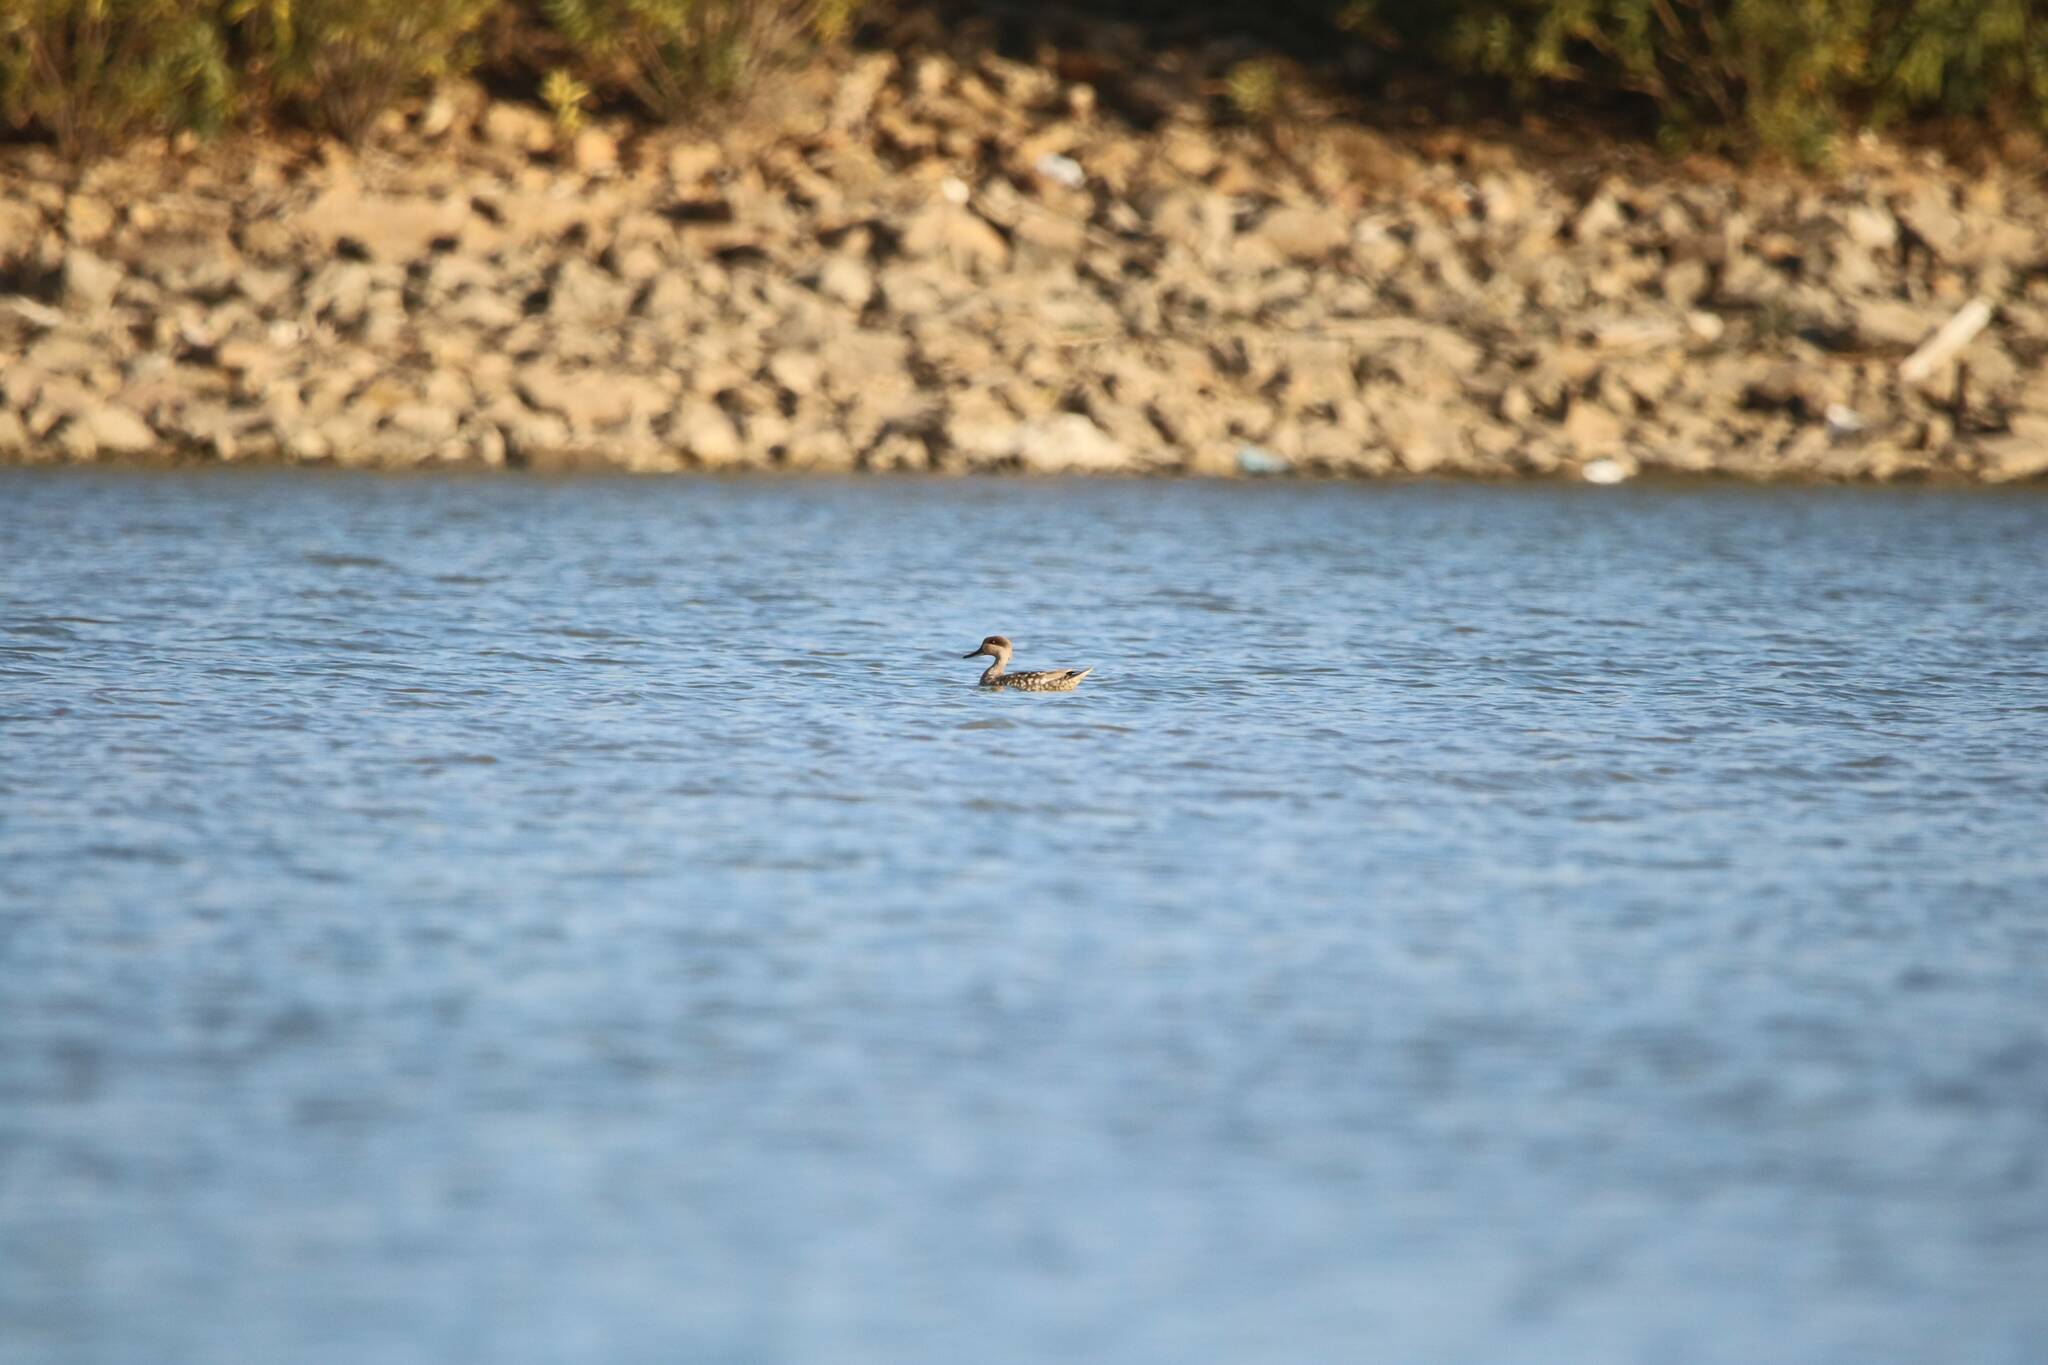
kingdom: Animalia
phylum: Chordata
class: Aves
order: Anseriformes
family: Anatidae
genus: Marmaronetta
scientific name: Marmaronetta angustirostris
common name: Marbled duck
